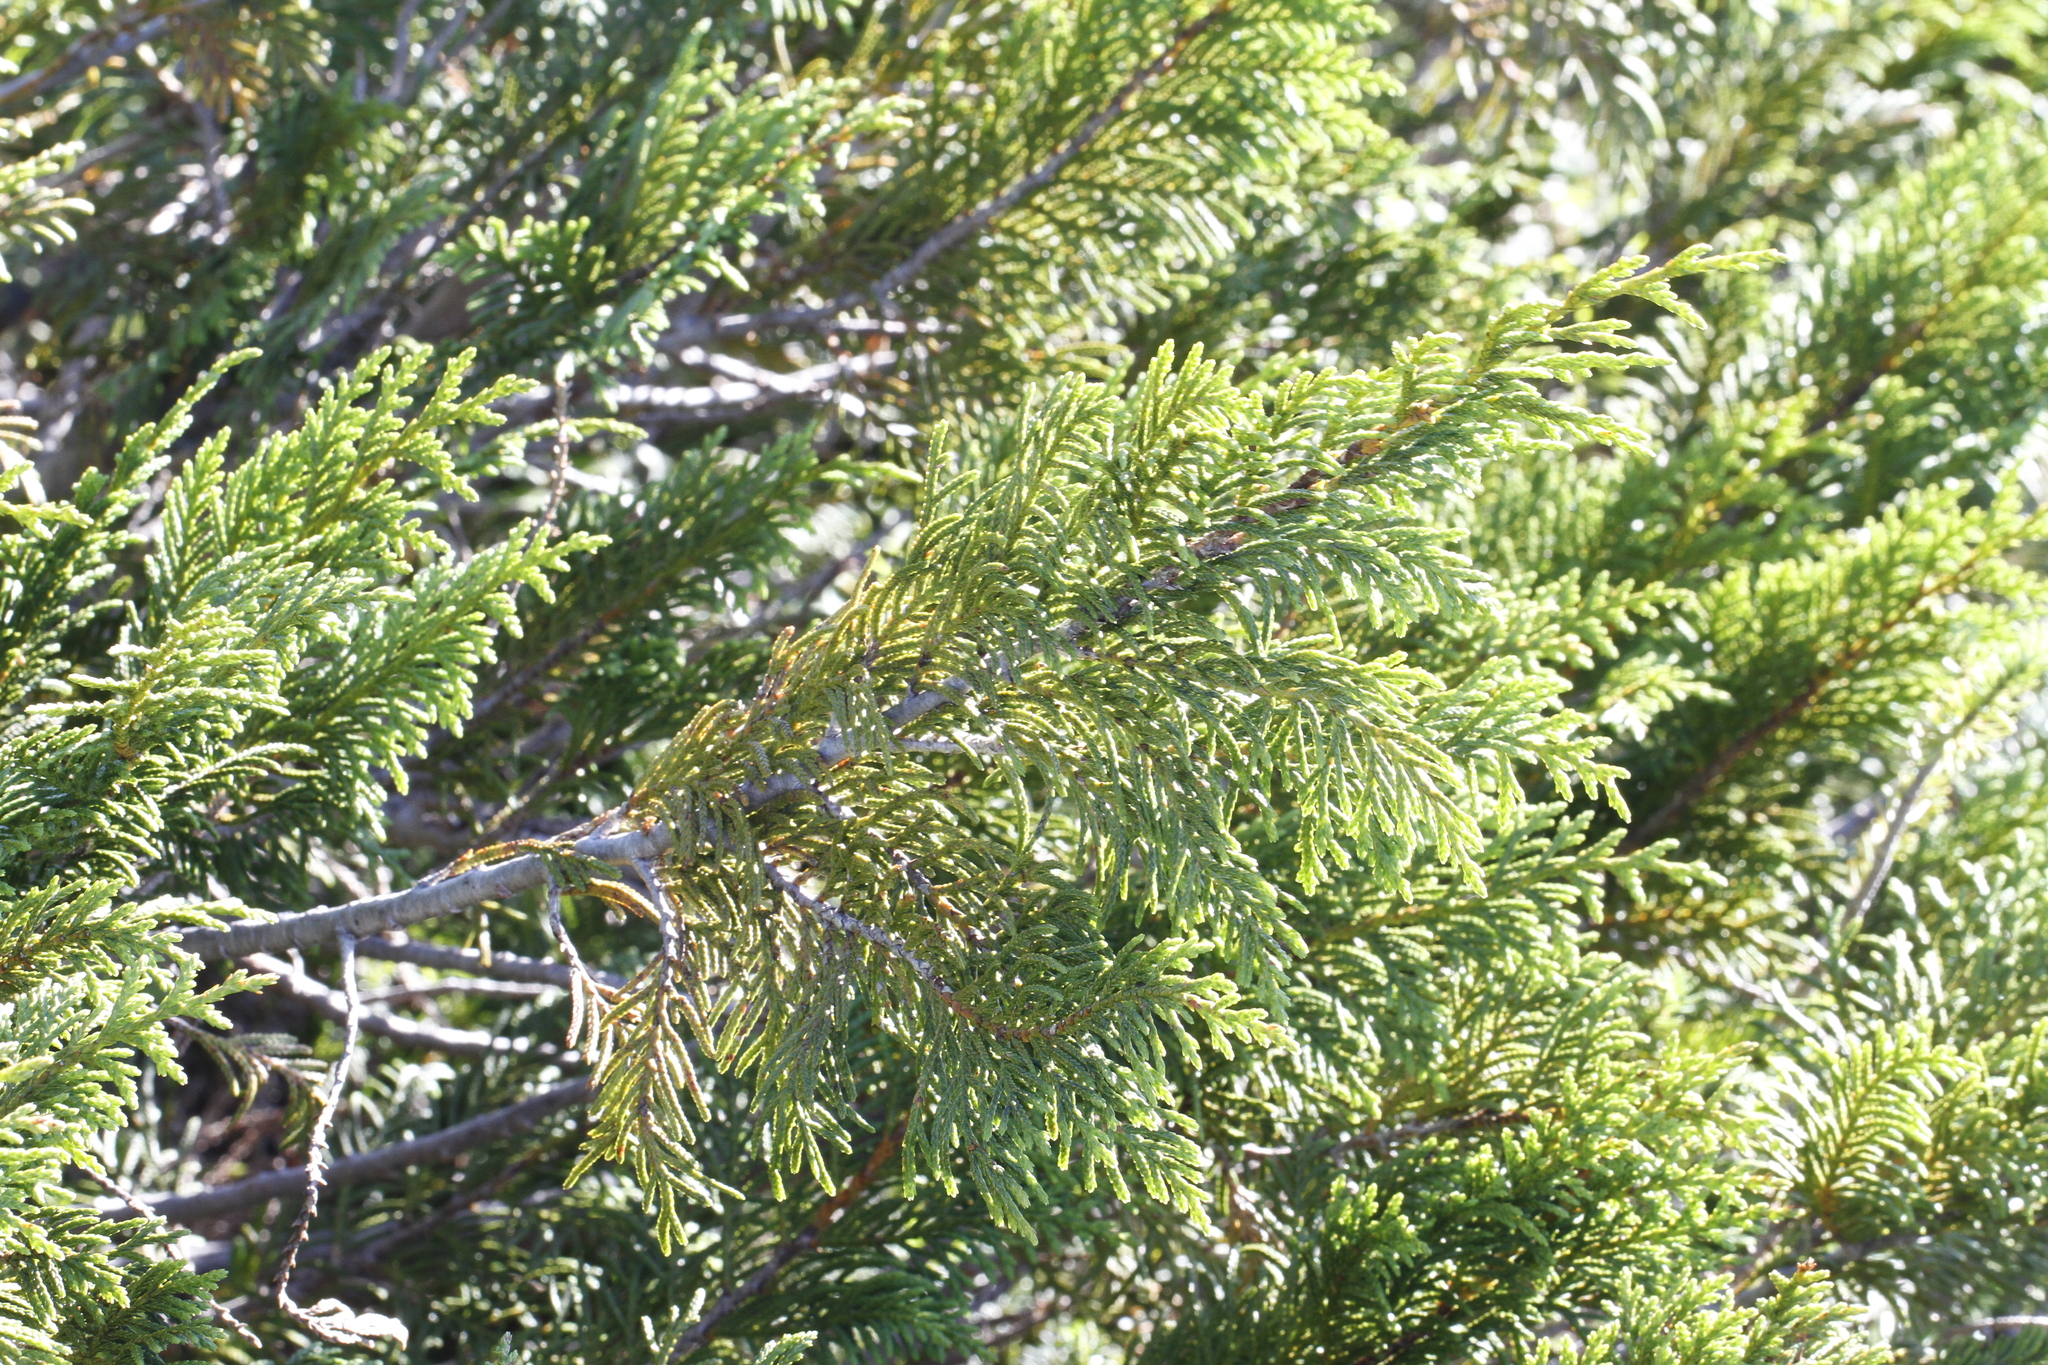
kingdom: Plantae
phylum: Tracheophyta
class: Pinopsida
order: Pinales
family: Cupressaceae
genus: Xanthocyparis
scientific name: Xanthocyparis nootkatensis
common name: Nootka cypress
